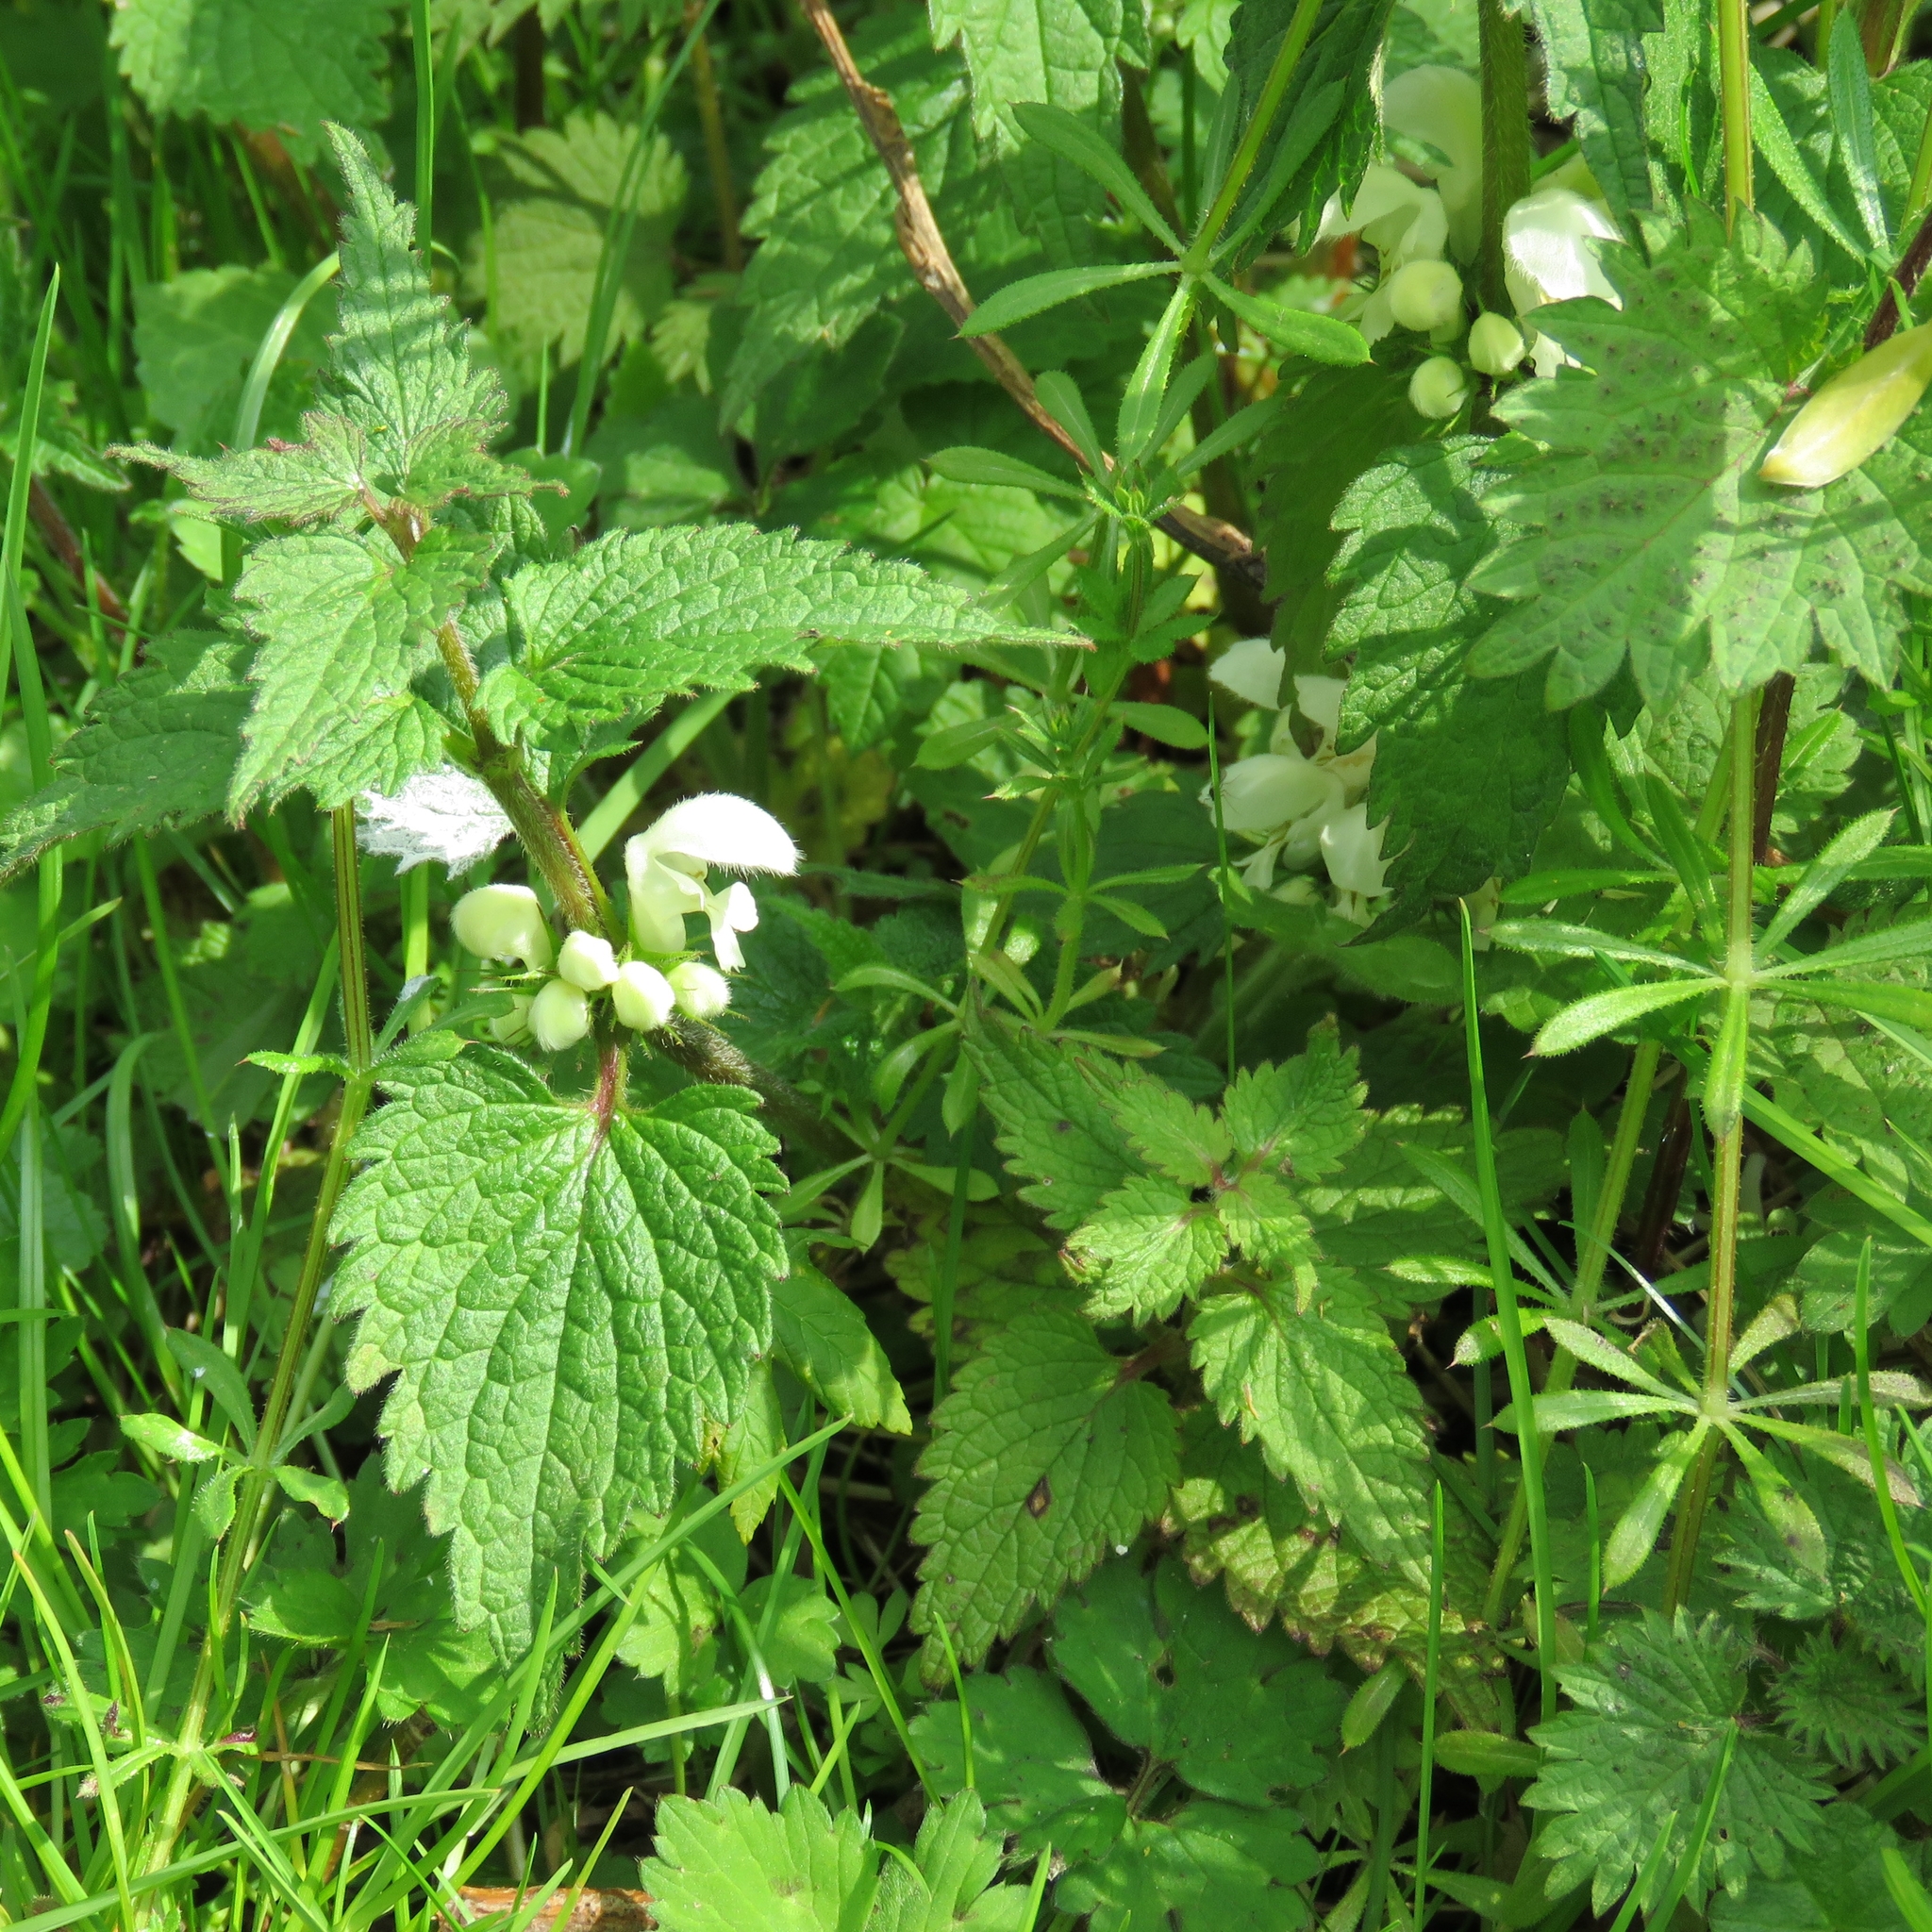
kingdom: Plantae
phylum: Tracheophyta
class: Magnoliopsida
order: Lamiales
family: Lamiaceae
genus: Lamium
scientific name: Lamium album
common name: White dead-nettle
